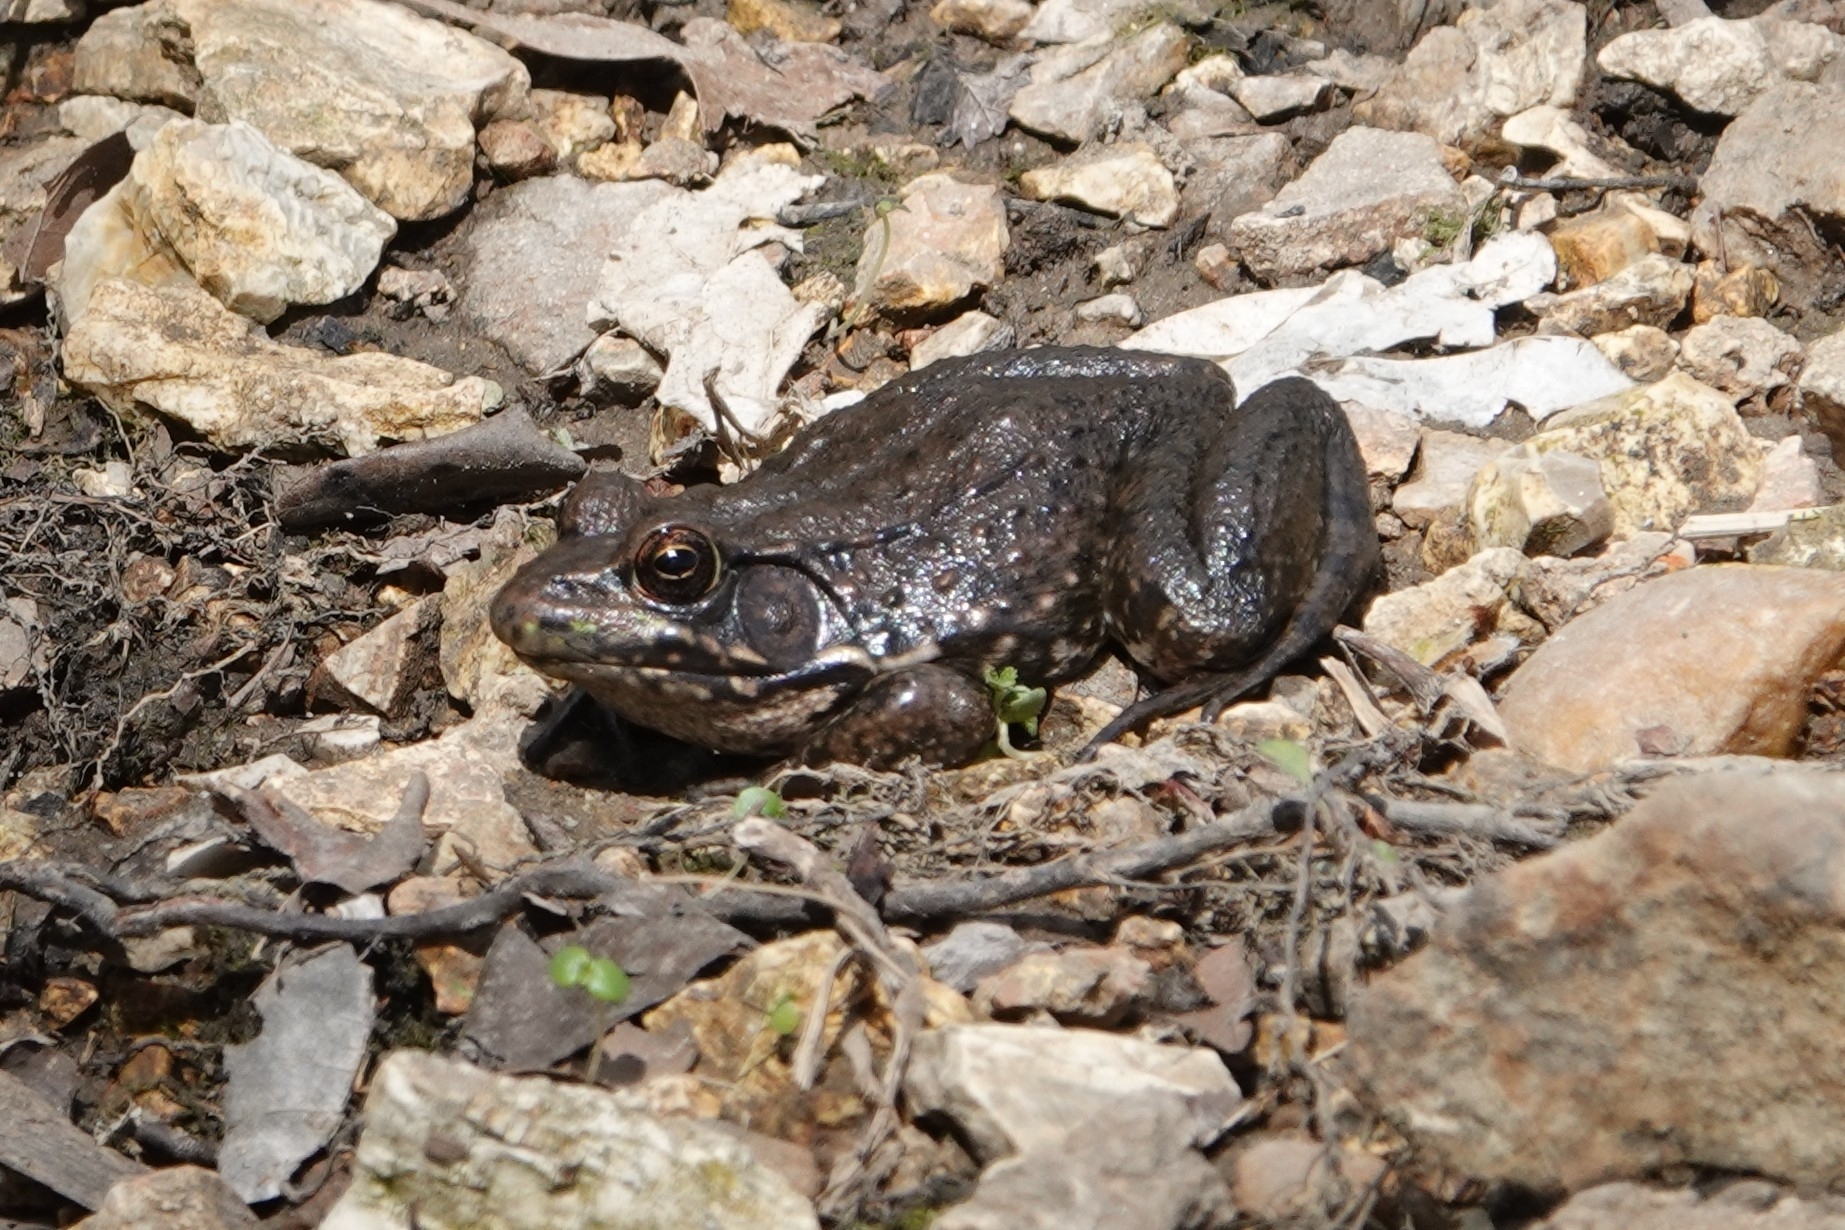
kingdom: Animalia
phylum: Chordata
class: Amphibia
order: Anura
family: Ranidae
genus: Lithobates
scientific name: Lithobates clamitans
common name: Green frog
